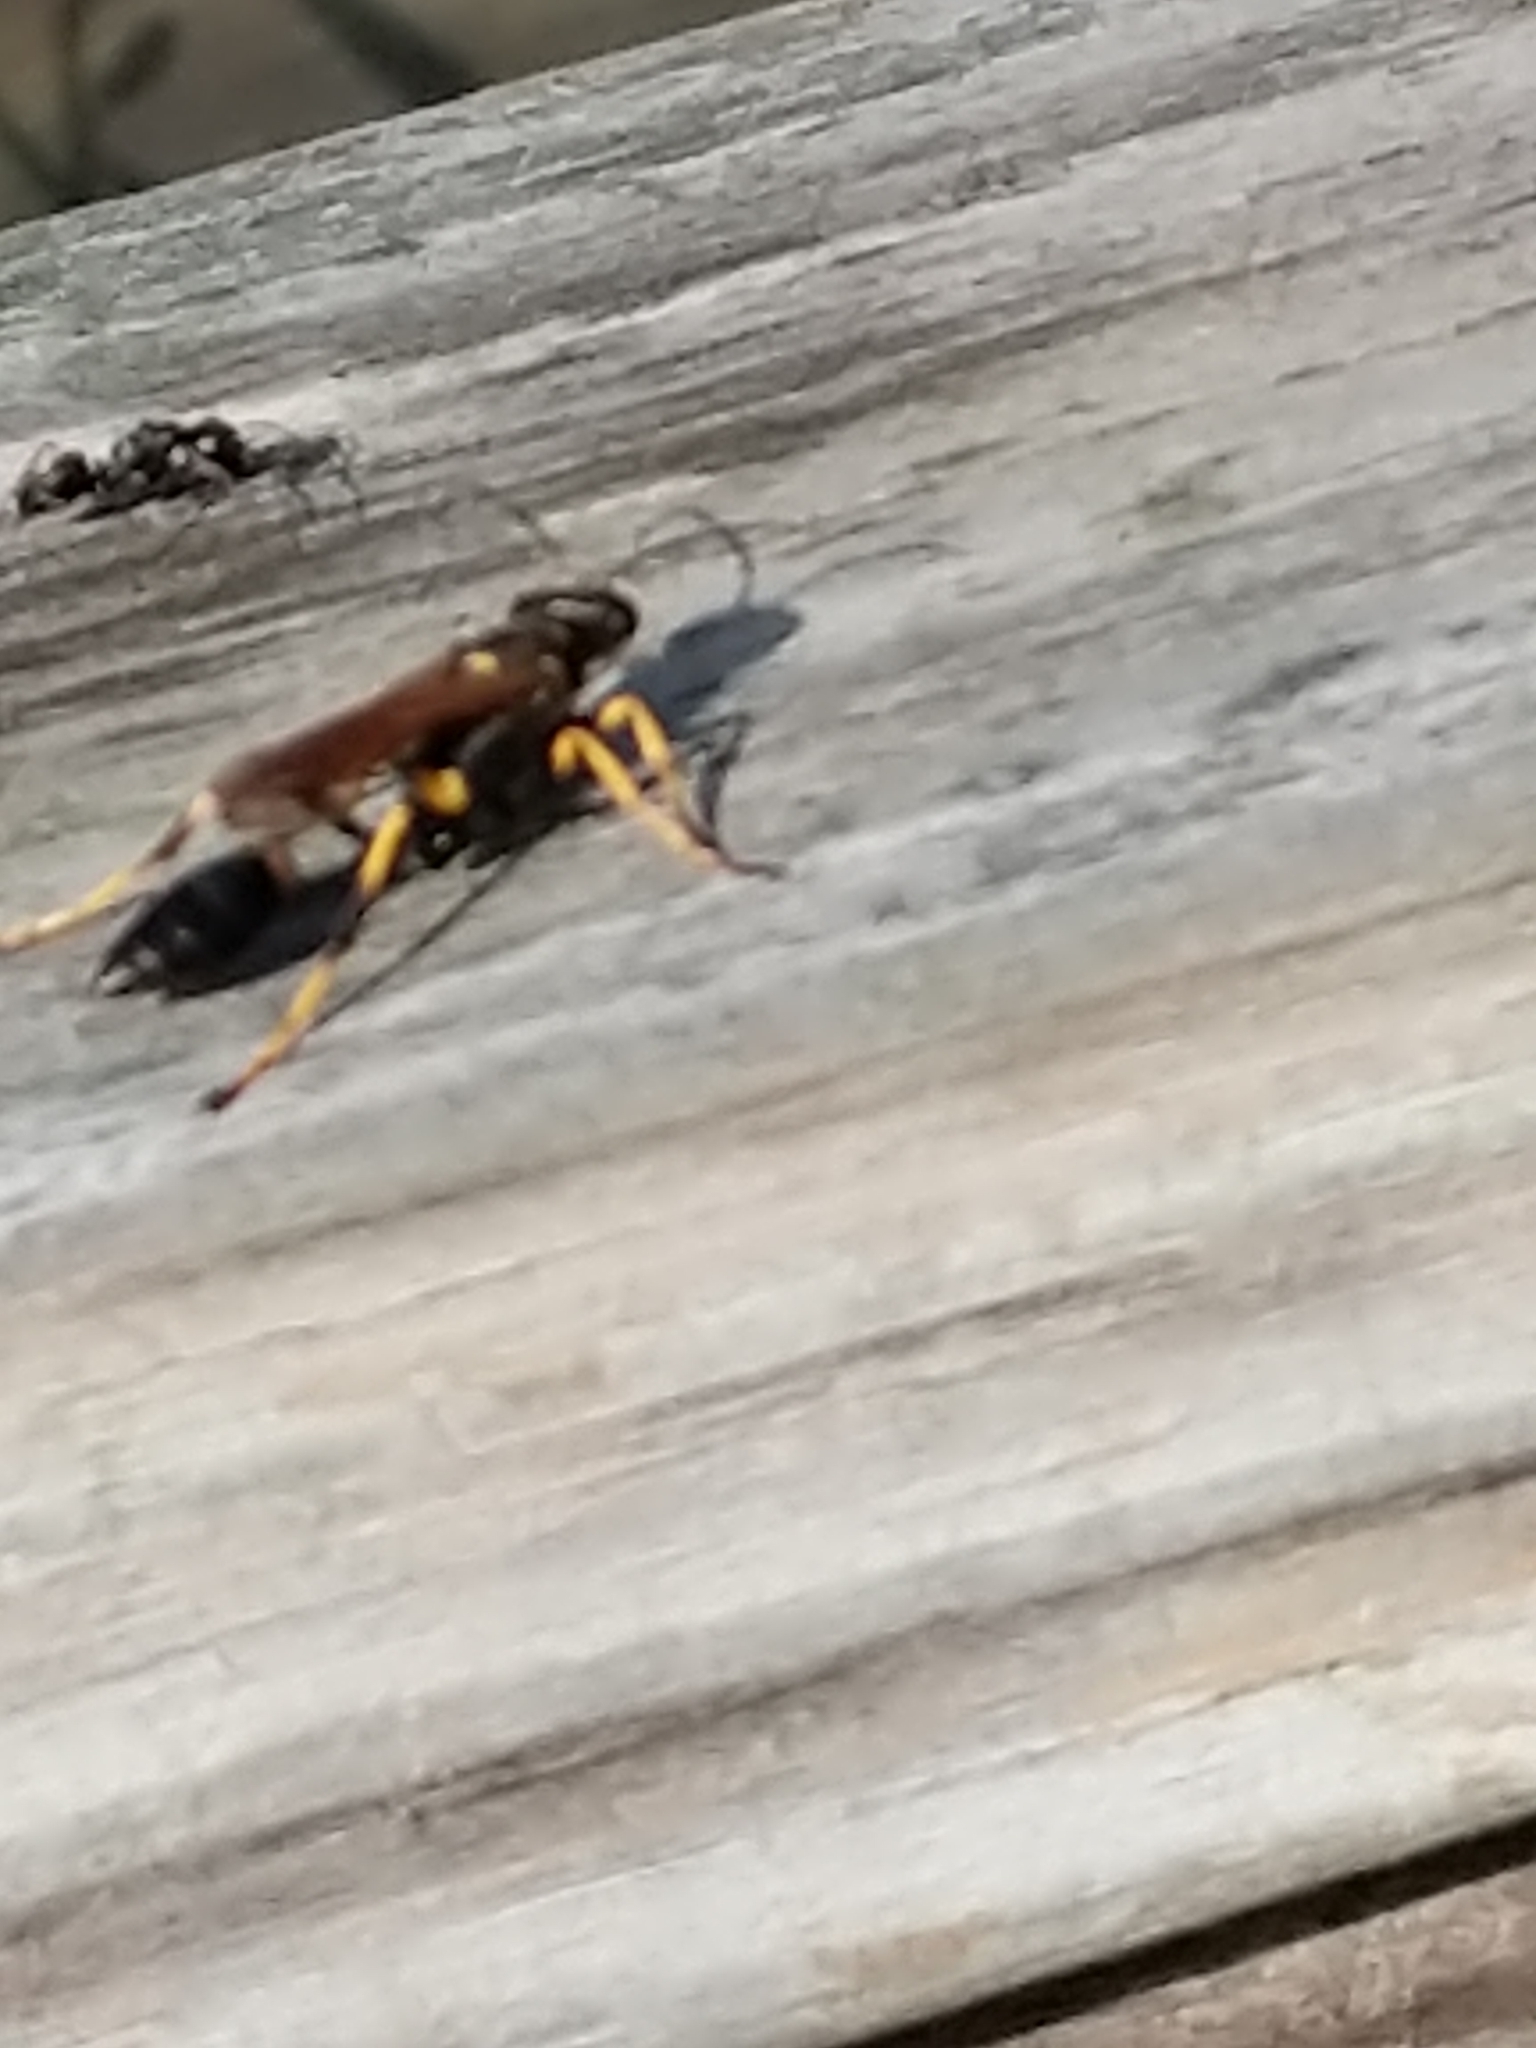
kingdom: Animalia
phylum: Arthropoda
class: Insecta
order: Hymenoptera
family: Sphecidae
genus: Sceliphron
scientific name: Sceliphron caementarium
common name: Mud dauber
